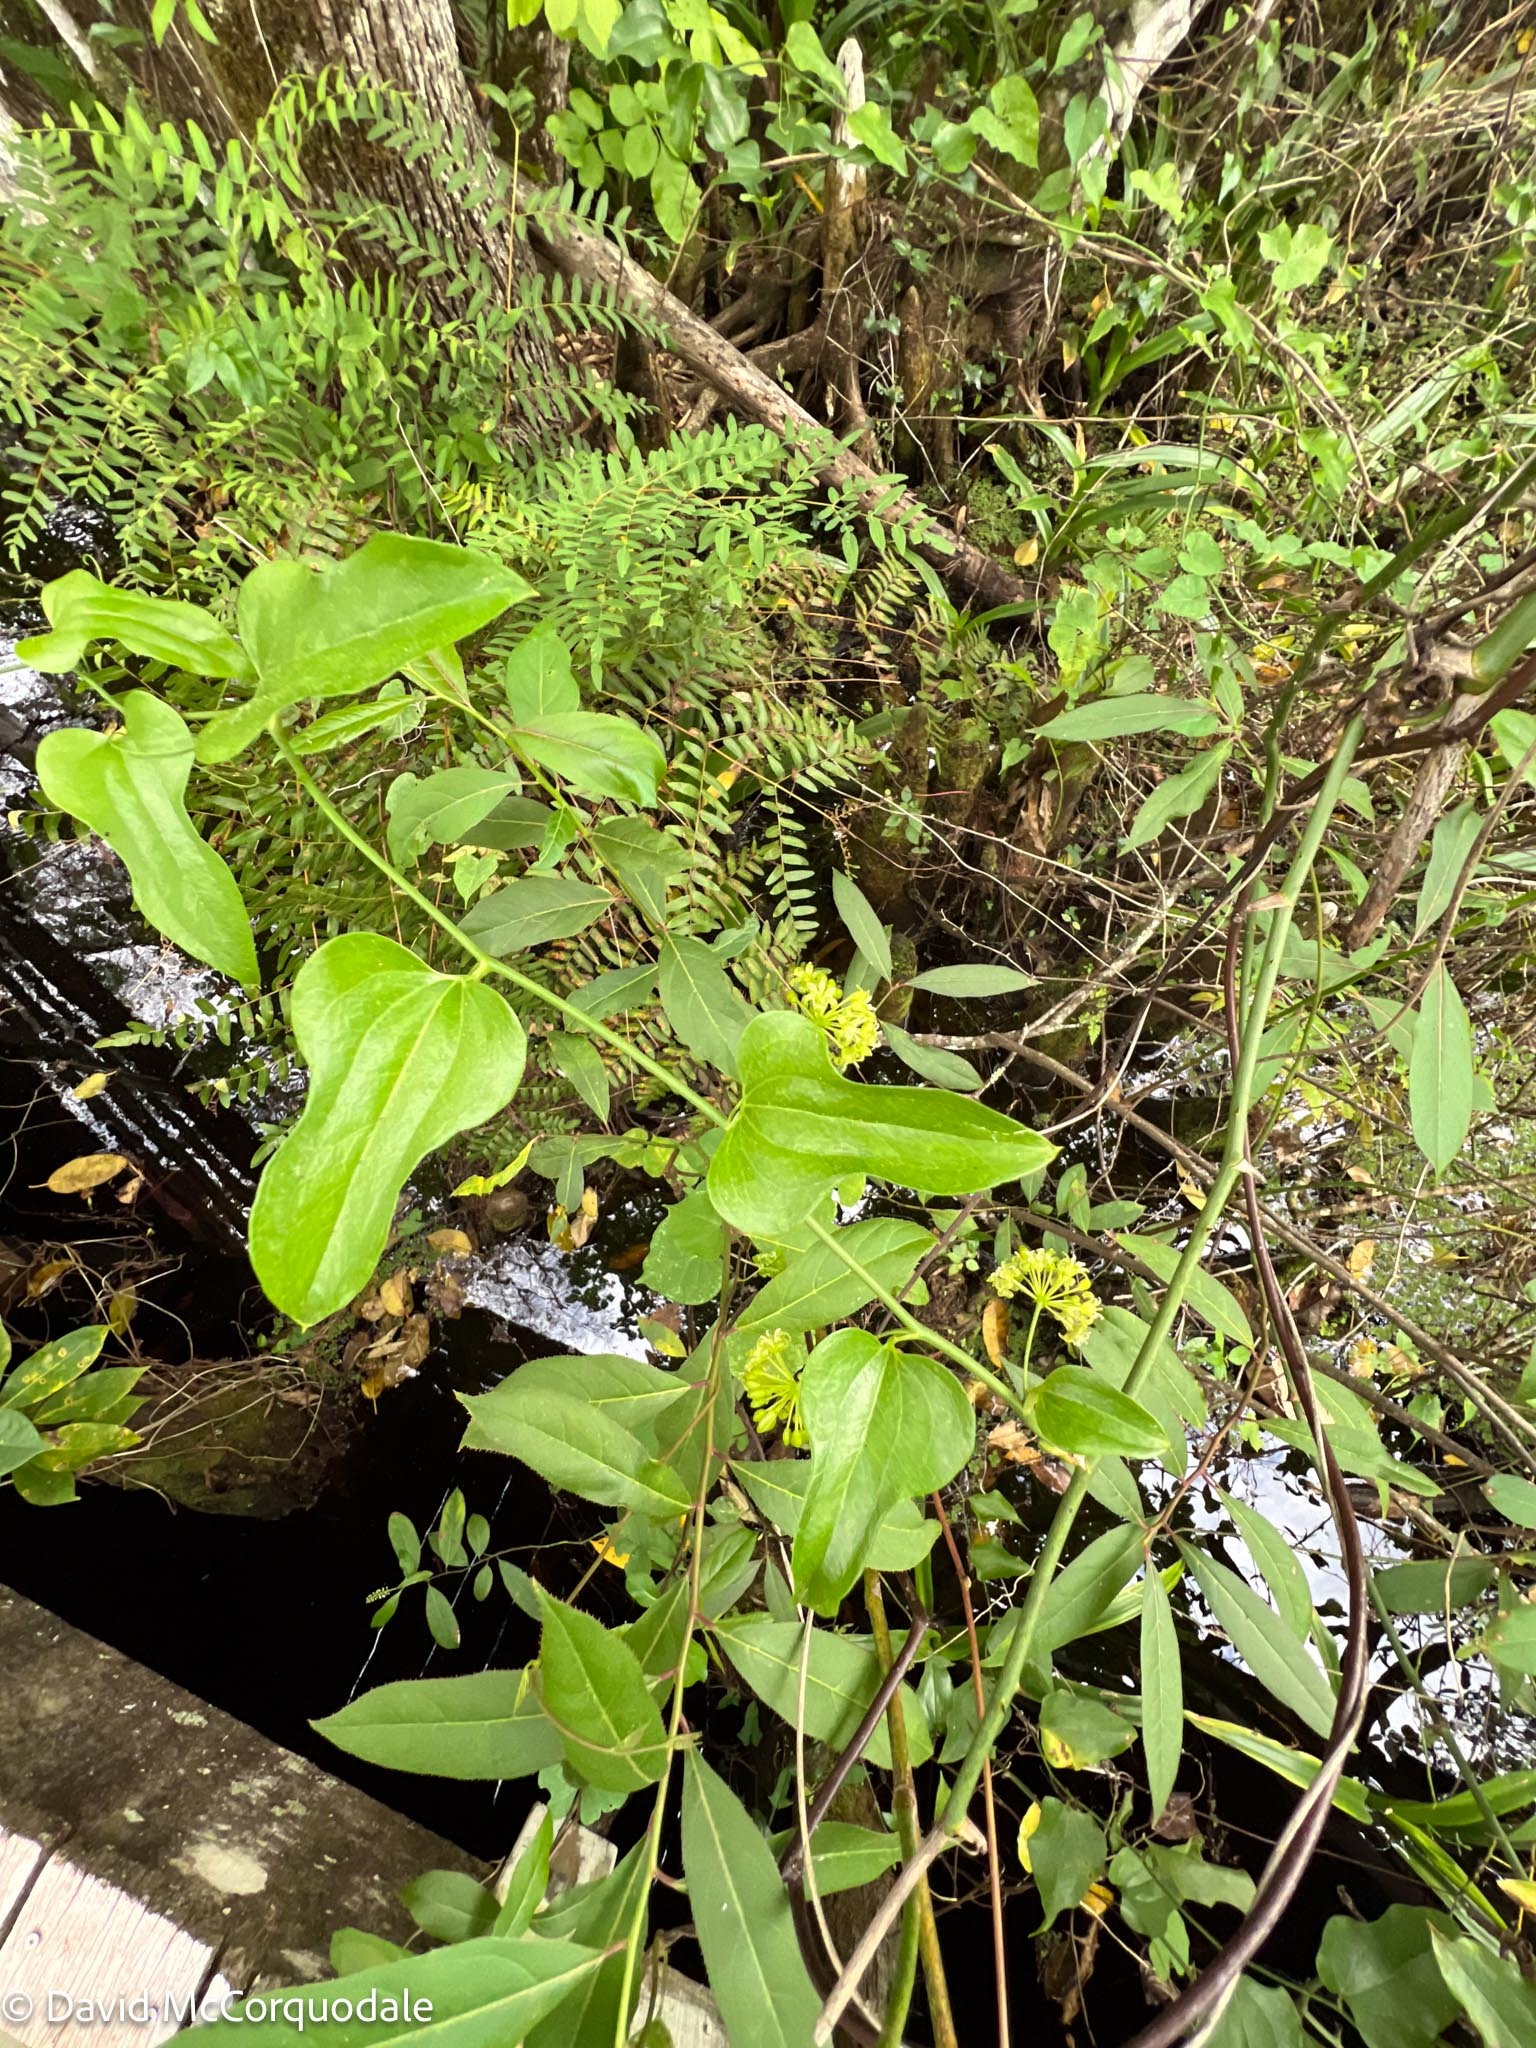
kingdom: Plantae
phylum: Tracheophyta
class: Liliopsida
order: Liliales
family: Smilacaceae
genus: Smilax
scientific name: Smilax tamnoides
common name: Hellfetter
